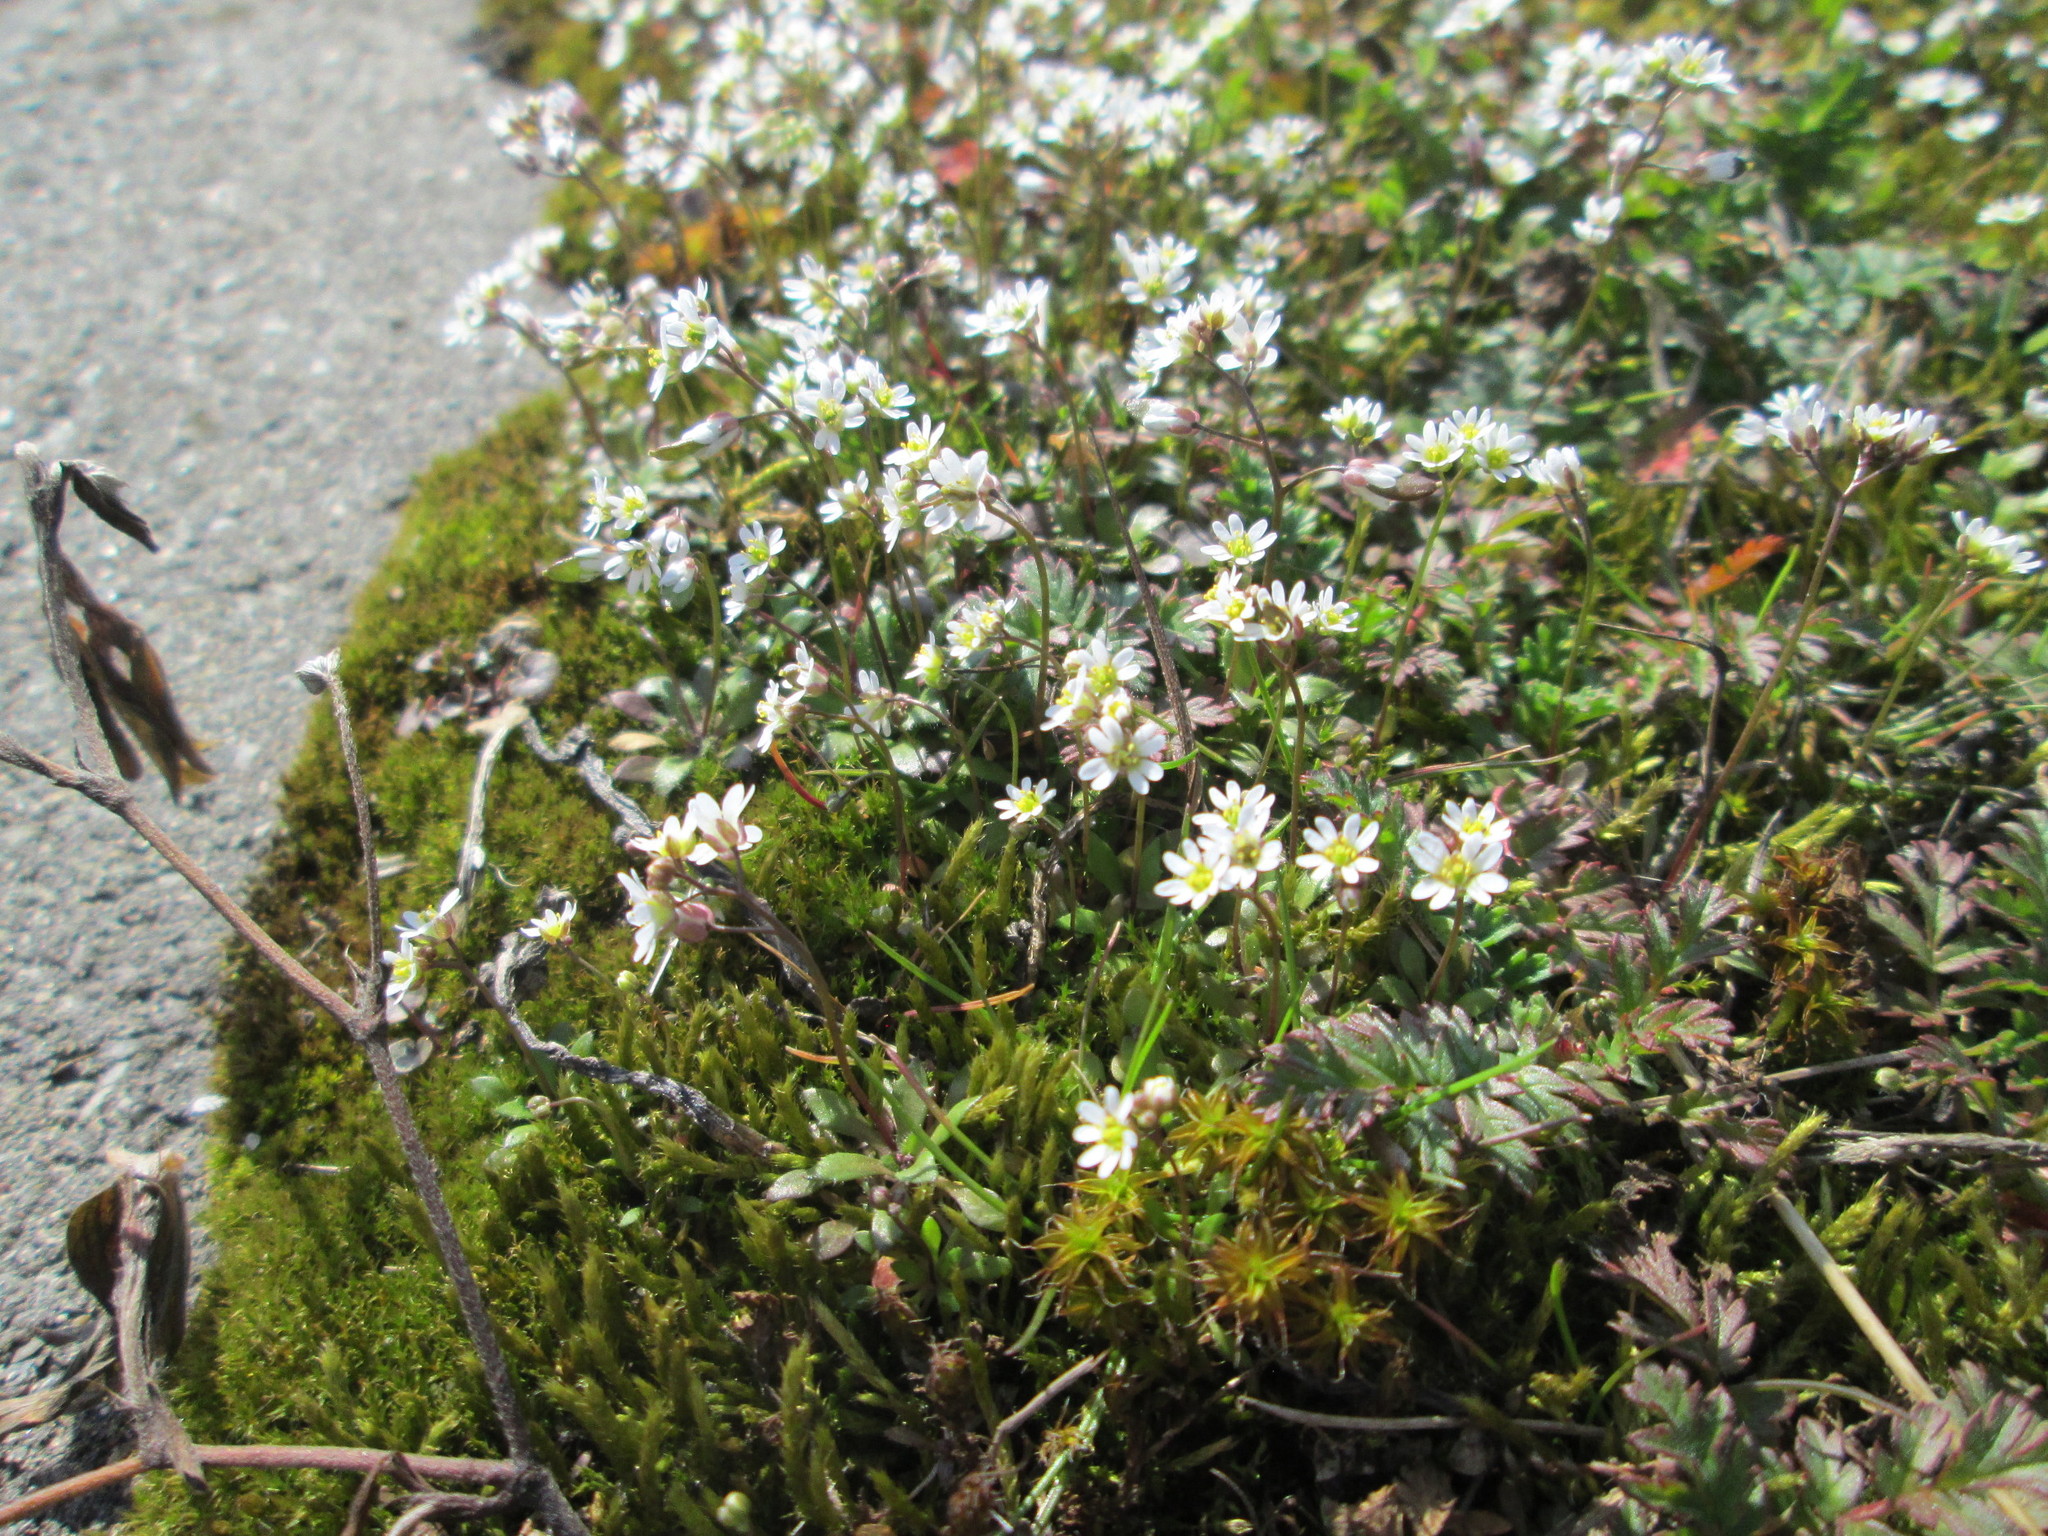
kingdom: Plantae
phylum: Tracheophyta
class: Magnoliopsida
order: Brassicales
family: Brassicaceae
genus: Draba
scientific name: Draba verna
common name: Spring draba
